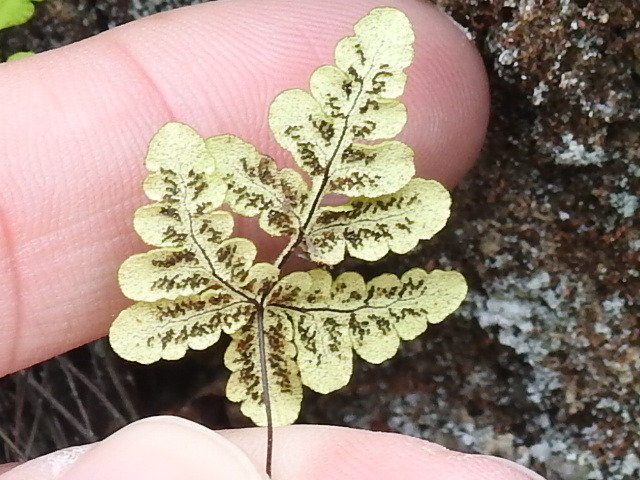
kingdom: Plantae
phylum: Tracheophyta
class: Polypodiopsida
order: Polypodiales
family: Pteridaceae
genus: Pentagramma
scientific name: Pentagramma triangularis
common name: Gold fern
